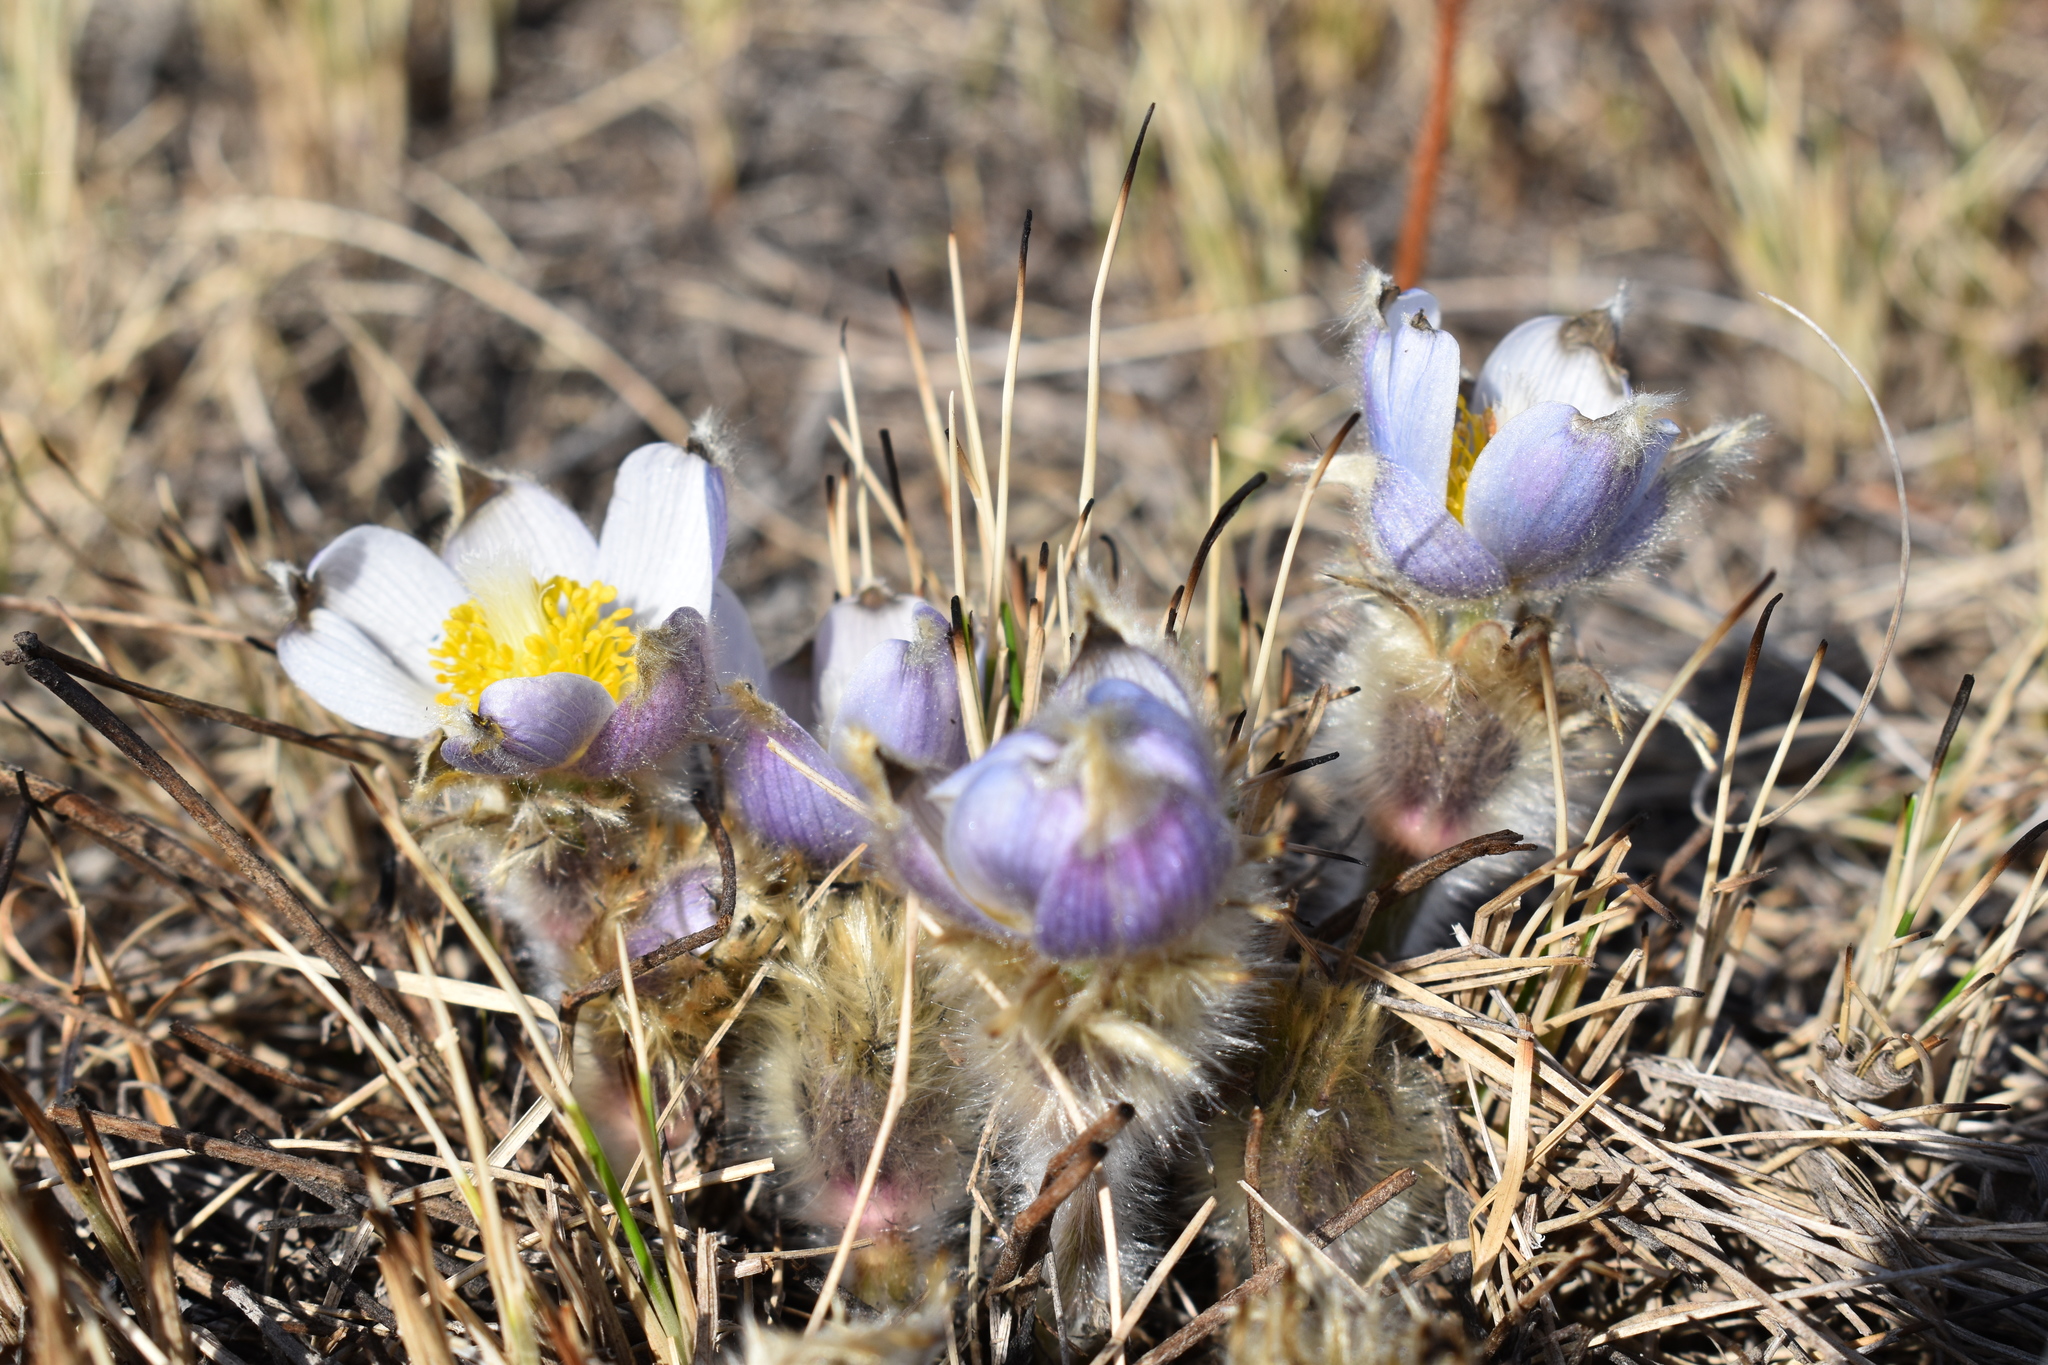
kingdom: Plantae
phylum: Tracheophyta
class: Magnoliopsida
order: Ranunculales
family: Ranunculaceae
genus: Pulsatilla
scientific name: Pulsatilla nuttalliana
